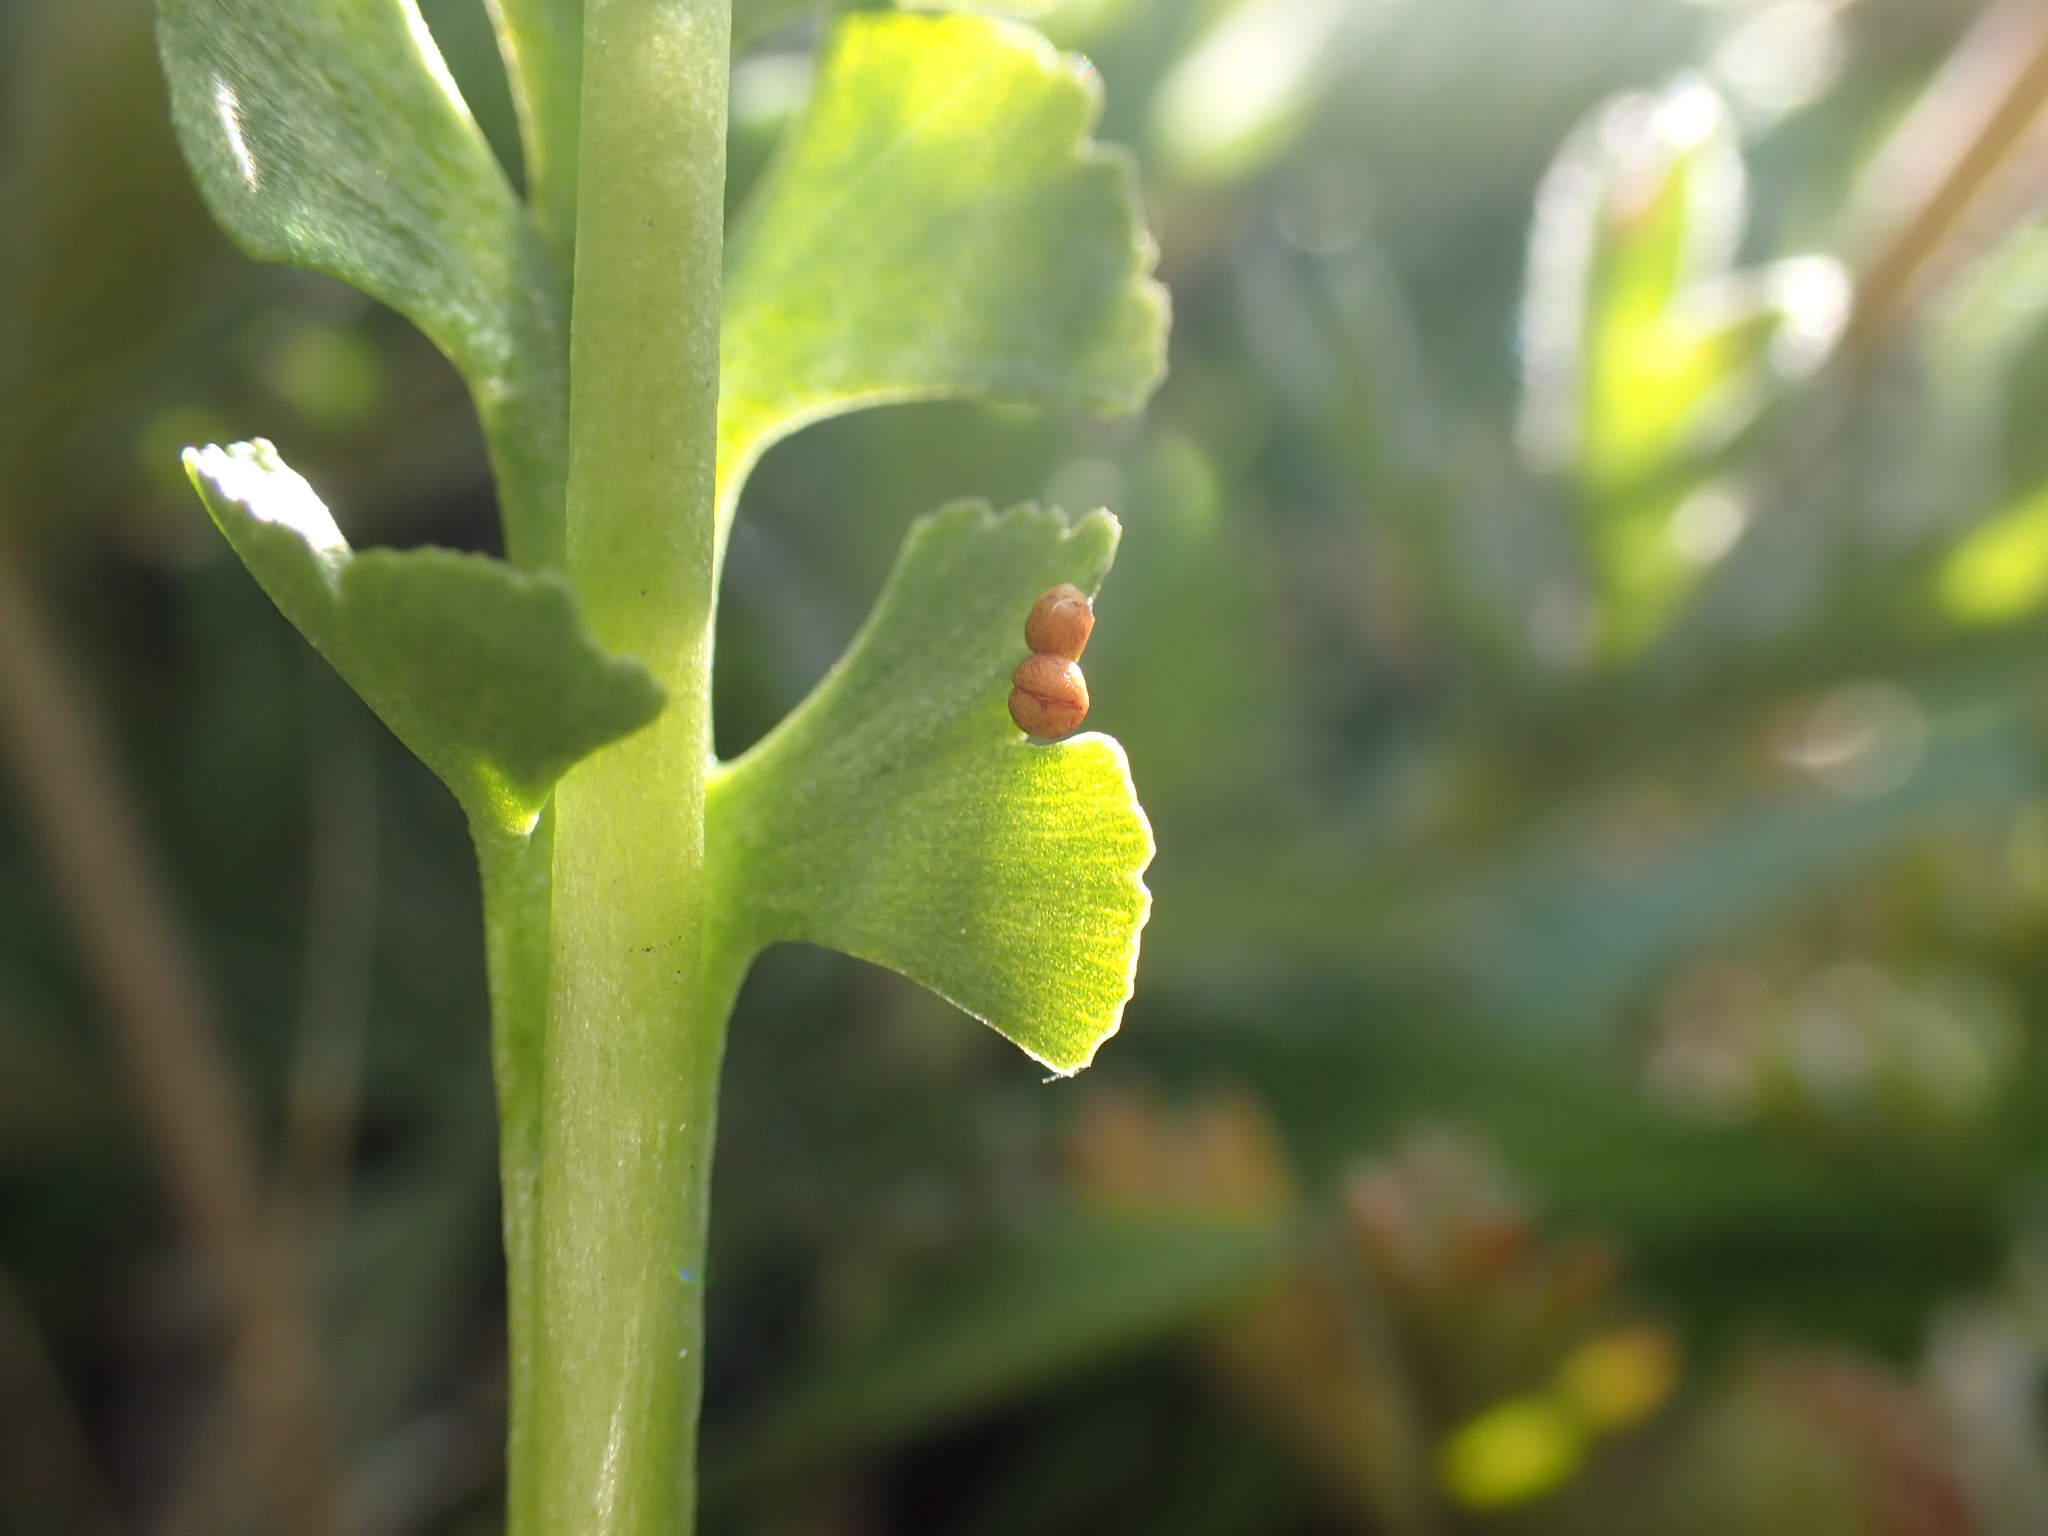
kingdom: Plantae
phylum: Tracheophyta
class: Polypodiopsida
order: Ophioglossales
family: Ophioglossaceae
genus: Botrychium
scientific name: Botrychium crenulatum
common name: Crenulate moonwort
